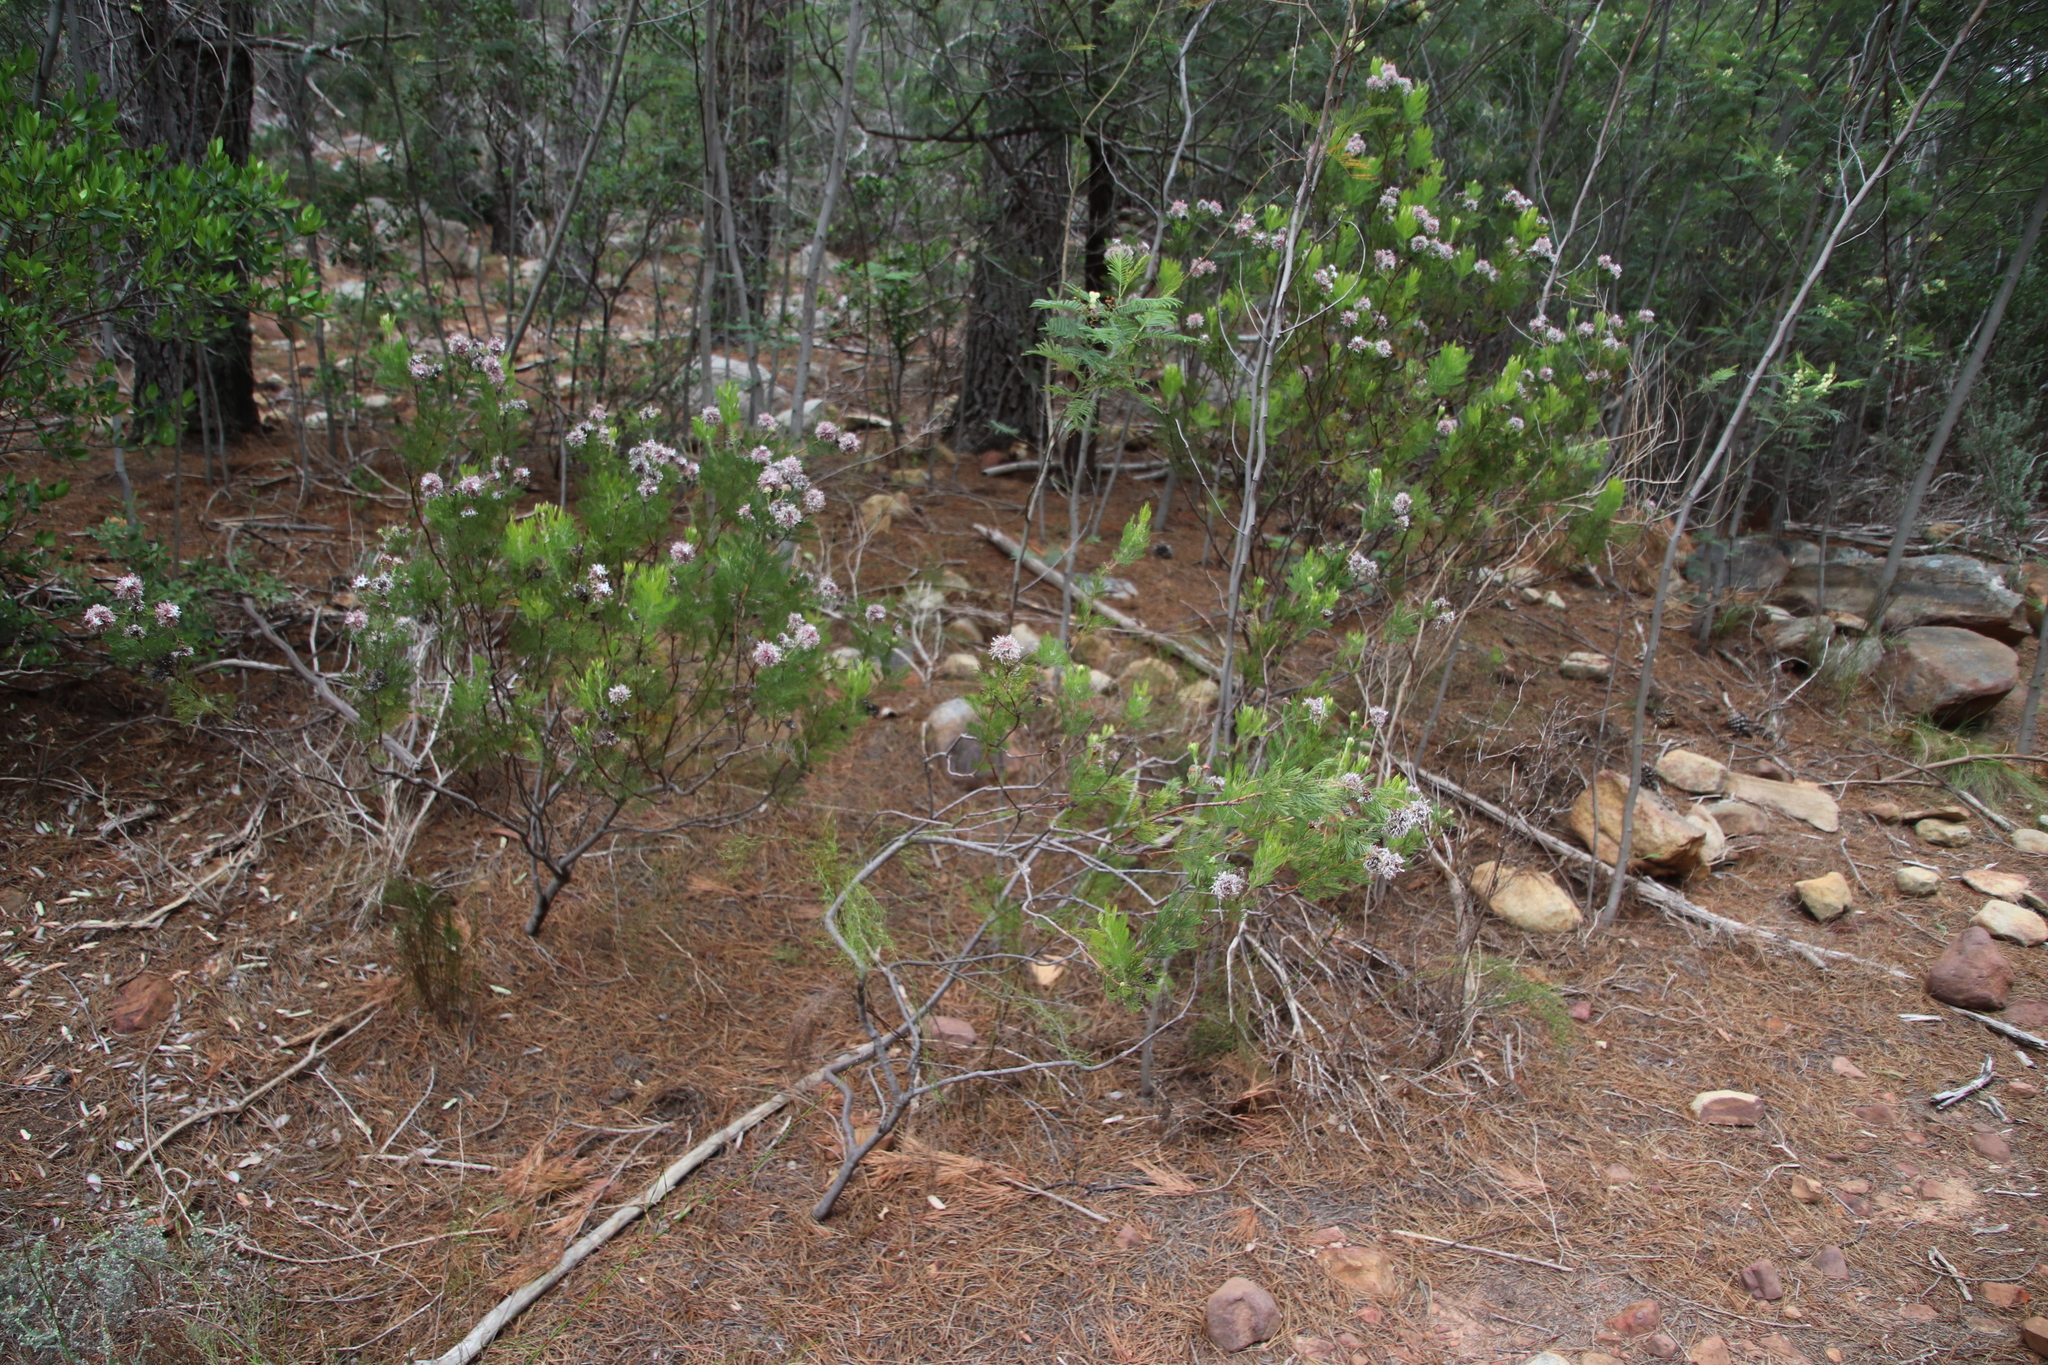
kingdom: Plantae
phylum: Tracheophyta
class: Magnoliopsida
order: Proteales
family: Proteaceae
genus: Serruria
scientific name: Serruria acrocarpa
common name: Common rootstock spiderhead
